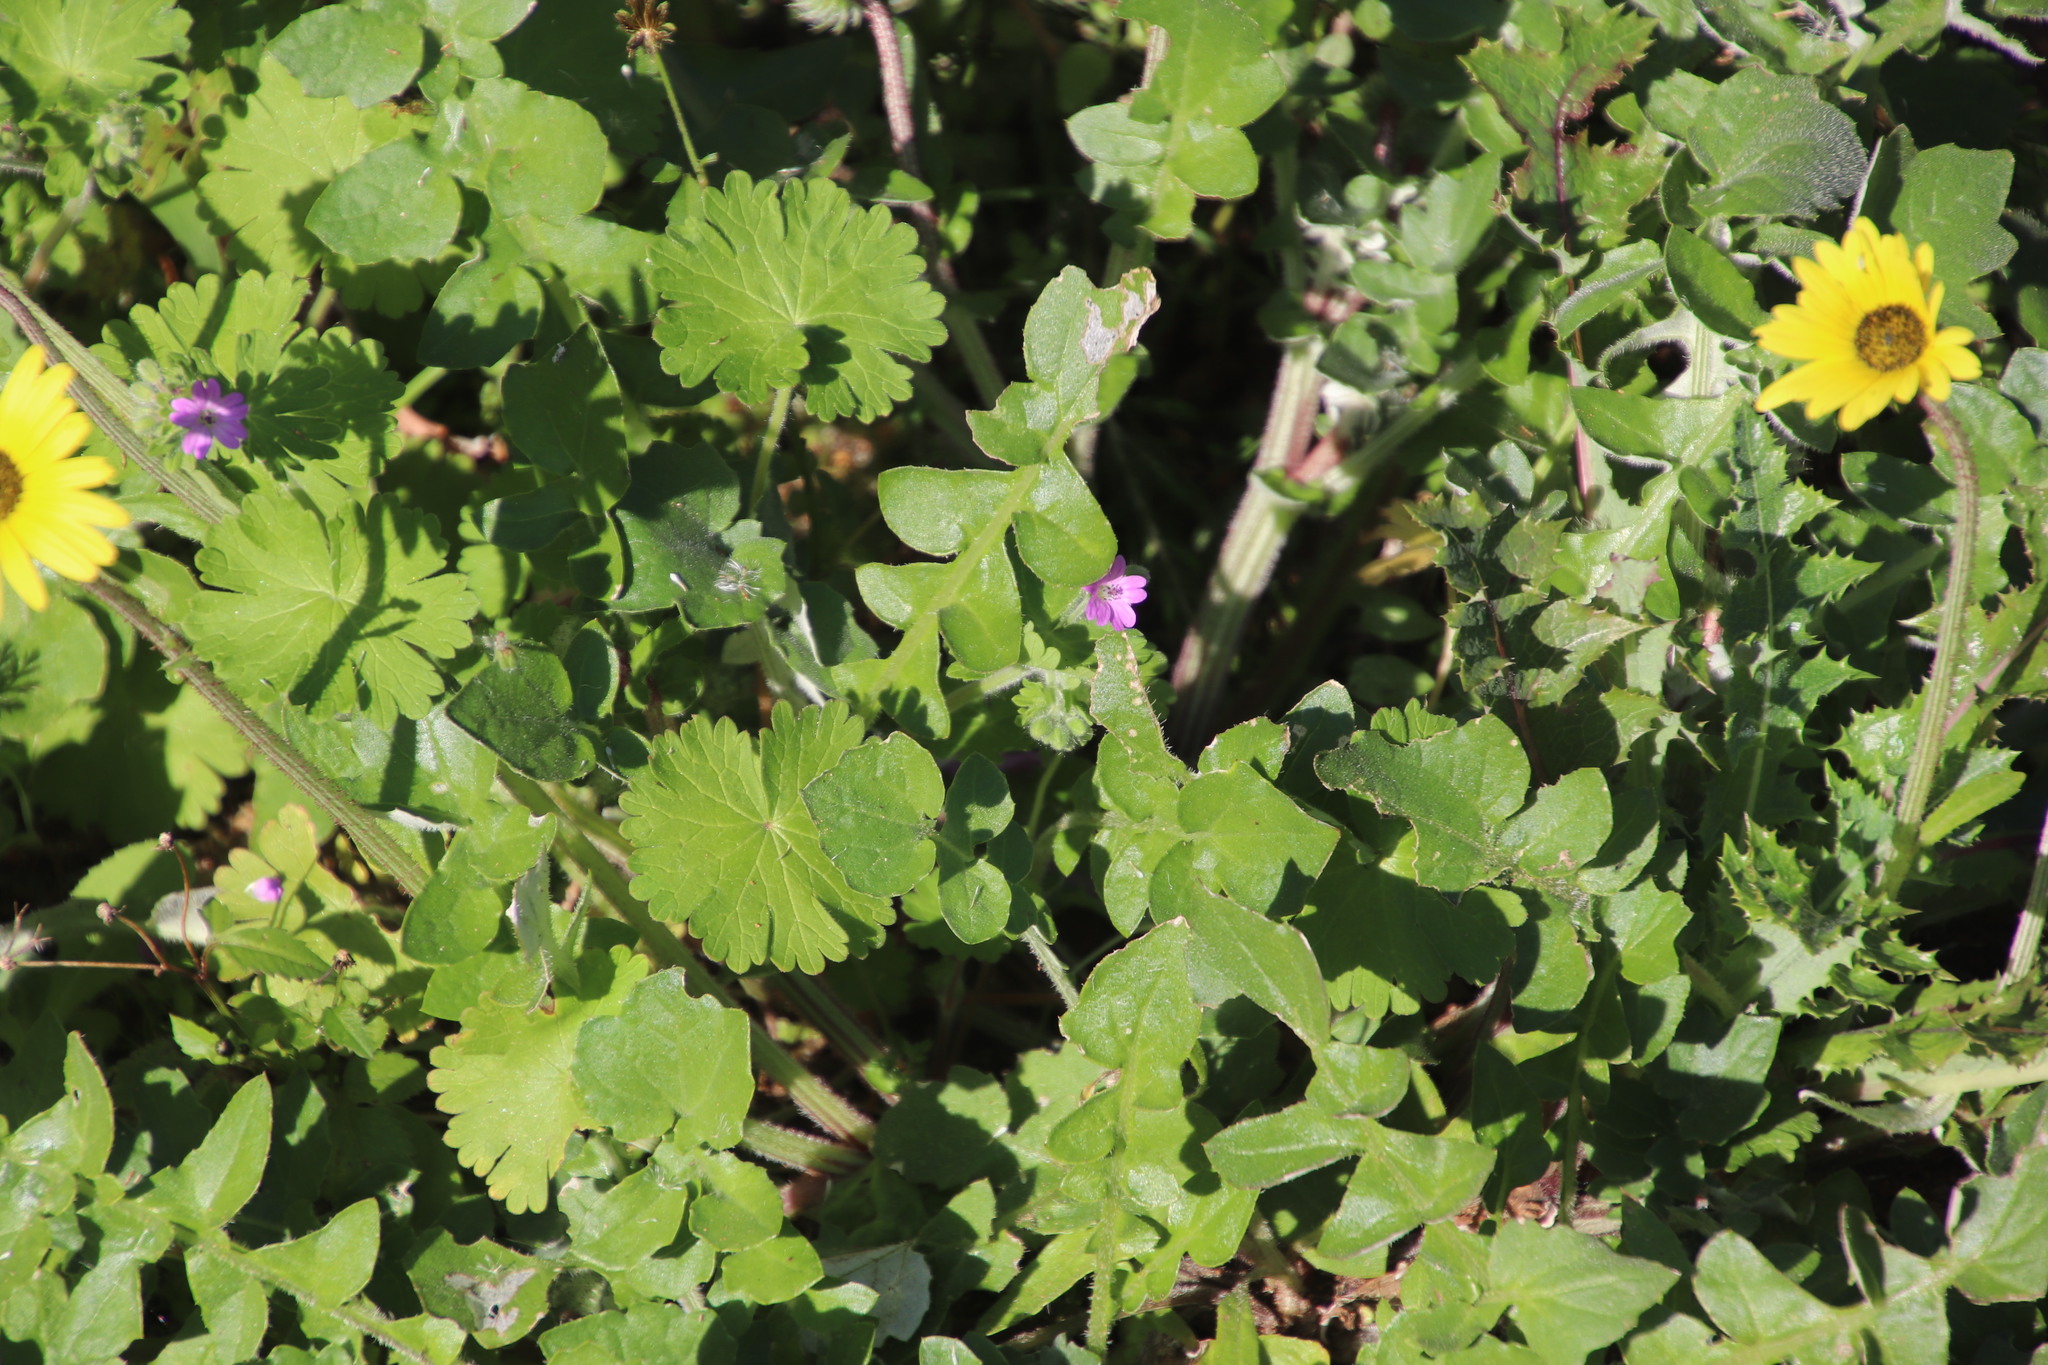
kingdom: Plantae
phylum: Tracheophyta
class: Magnoliopsida
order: Geraniales
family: Geraniaceae
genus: Geranium
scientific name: Geranium molle
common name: Dove's-foot crane's-bill
